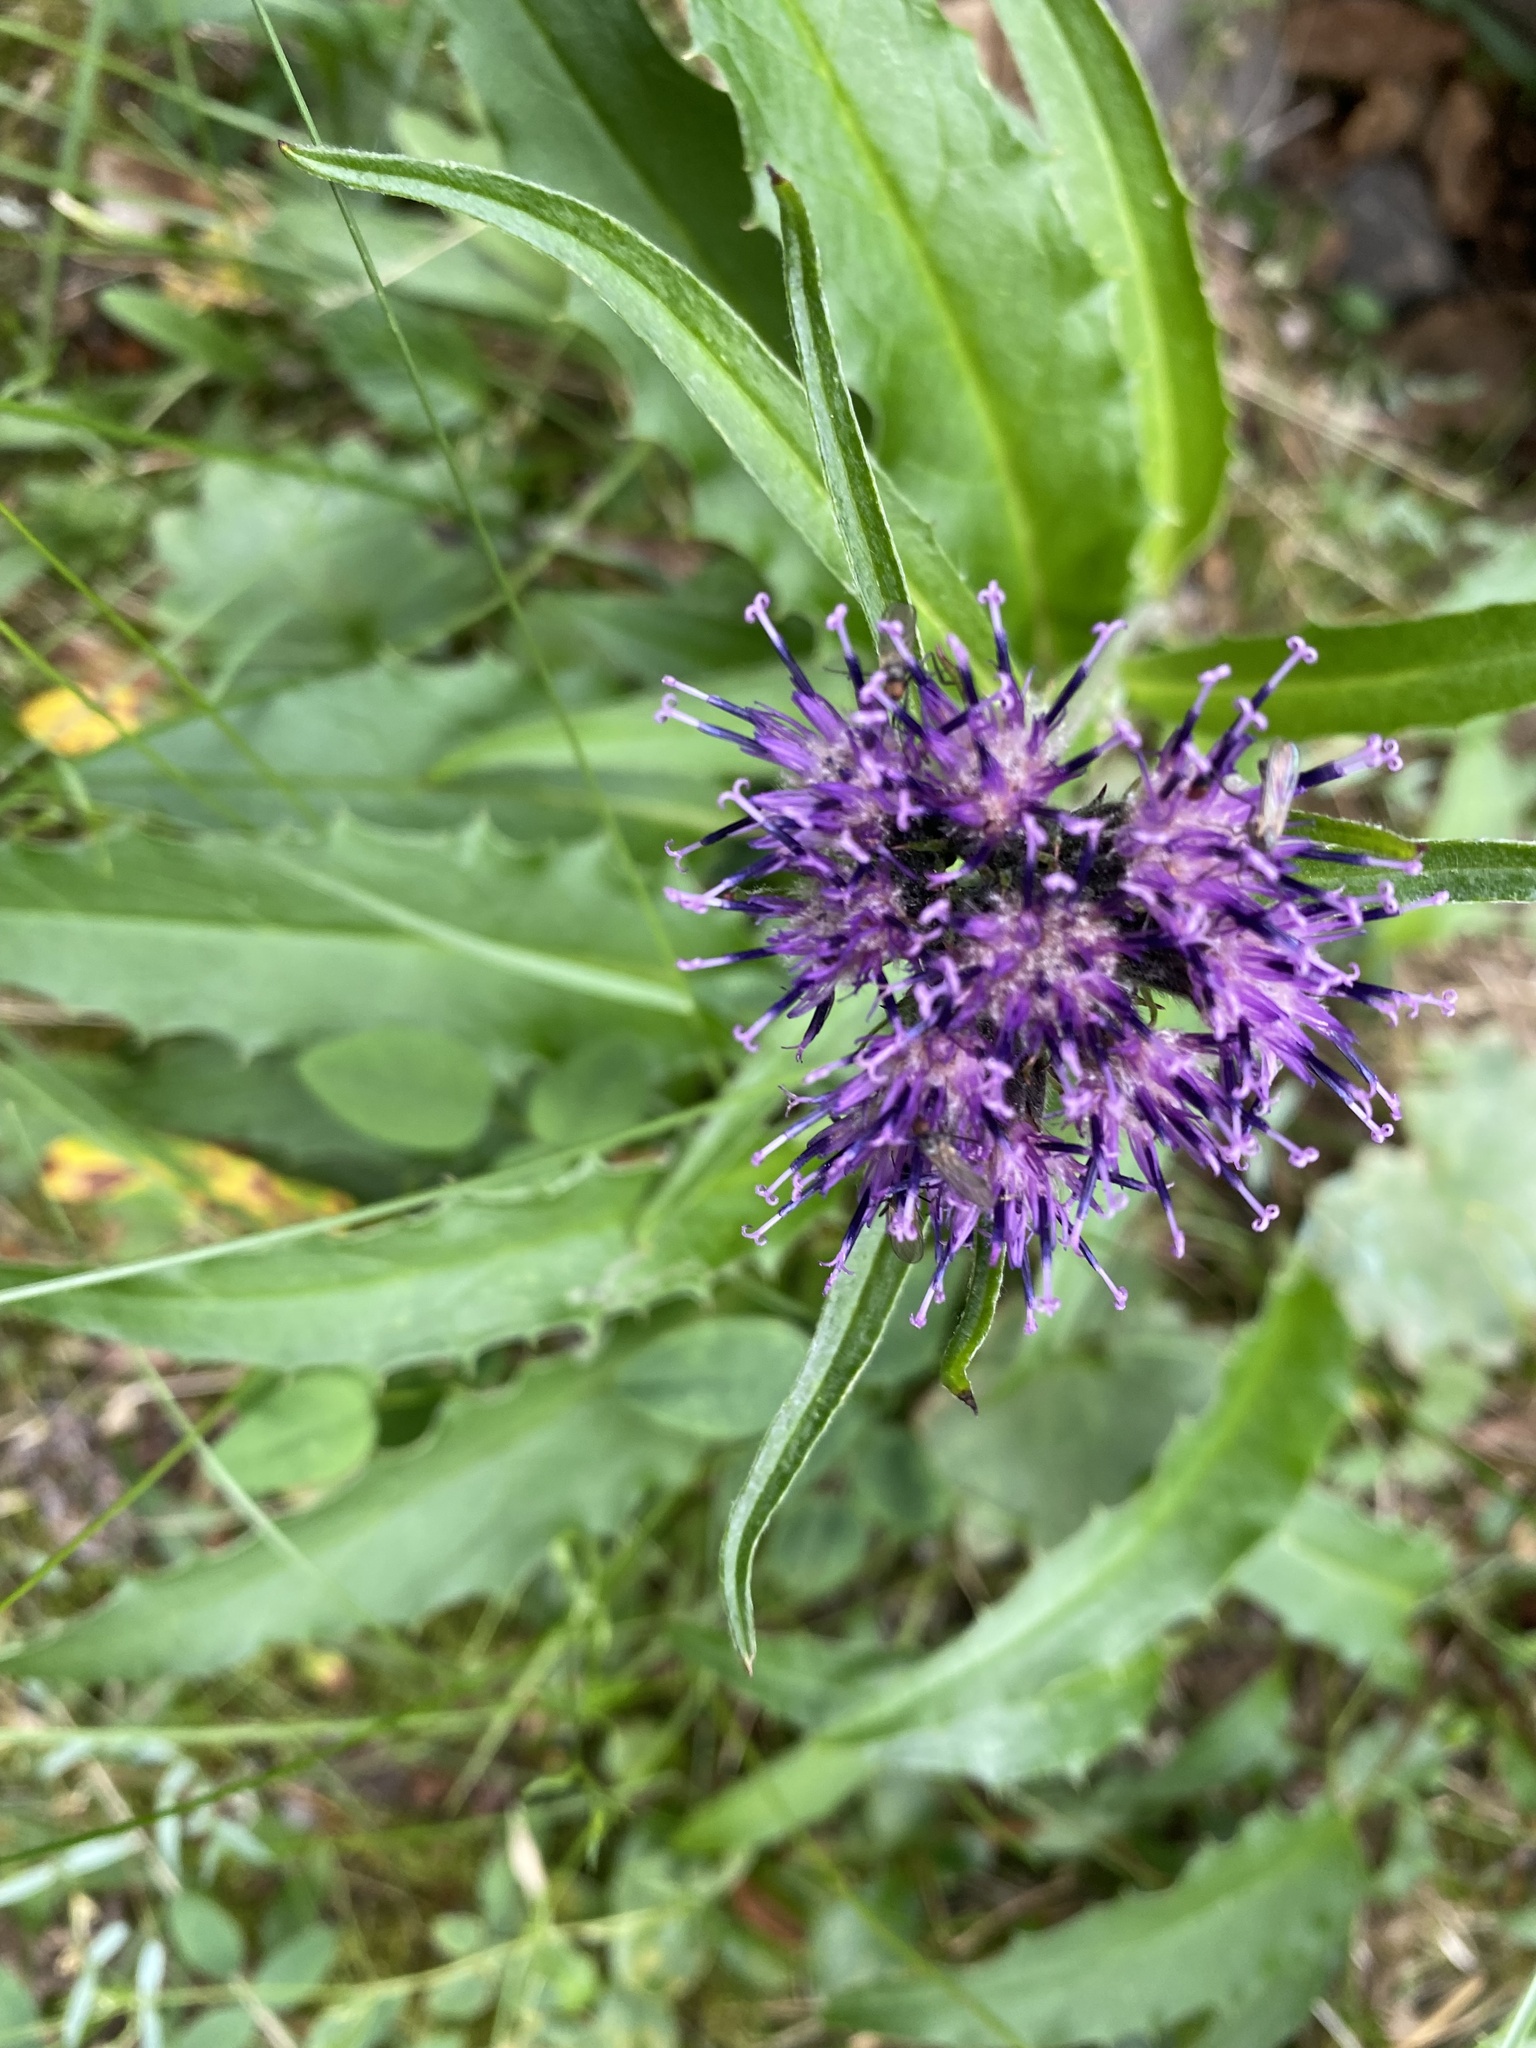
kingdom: Plantae
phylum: Tracheophyta
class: Magnoliopsida
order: Asterales
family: Asteraceae
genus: Saussurea
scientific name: Saussurea denticulata
